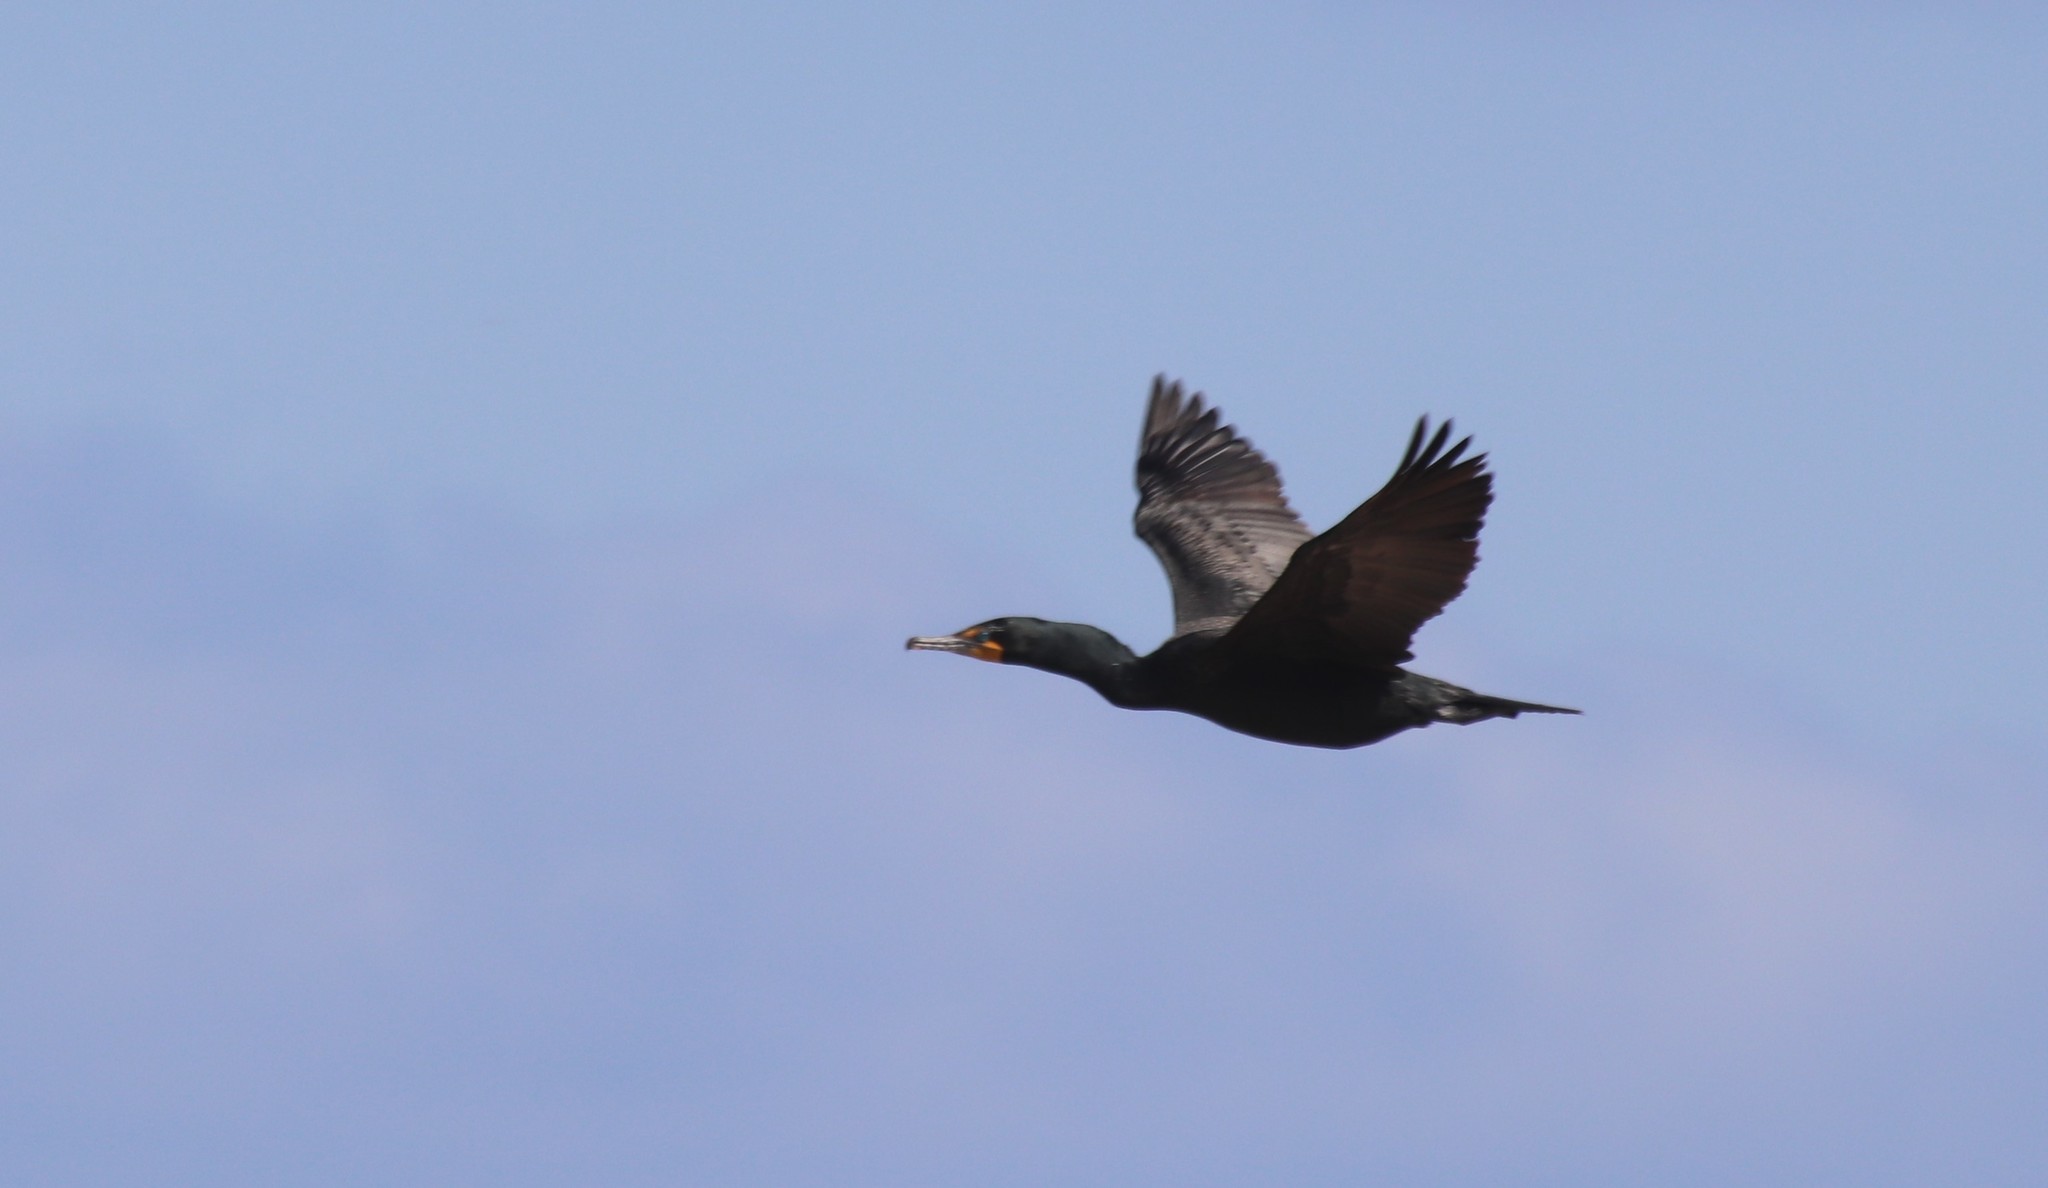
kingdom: Animalia
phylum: Chordata
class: Aves
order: Suliformes
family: Phalacrocoracidae
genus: Phalacrocorax
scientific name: Phalacrocorax auritus
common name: Double-crested cormorant
